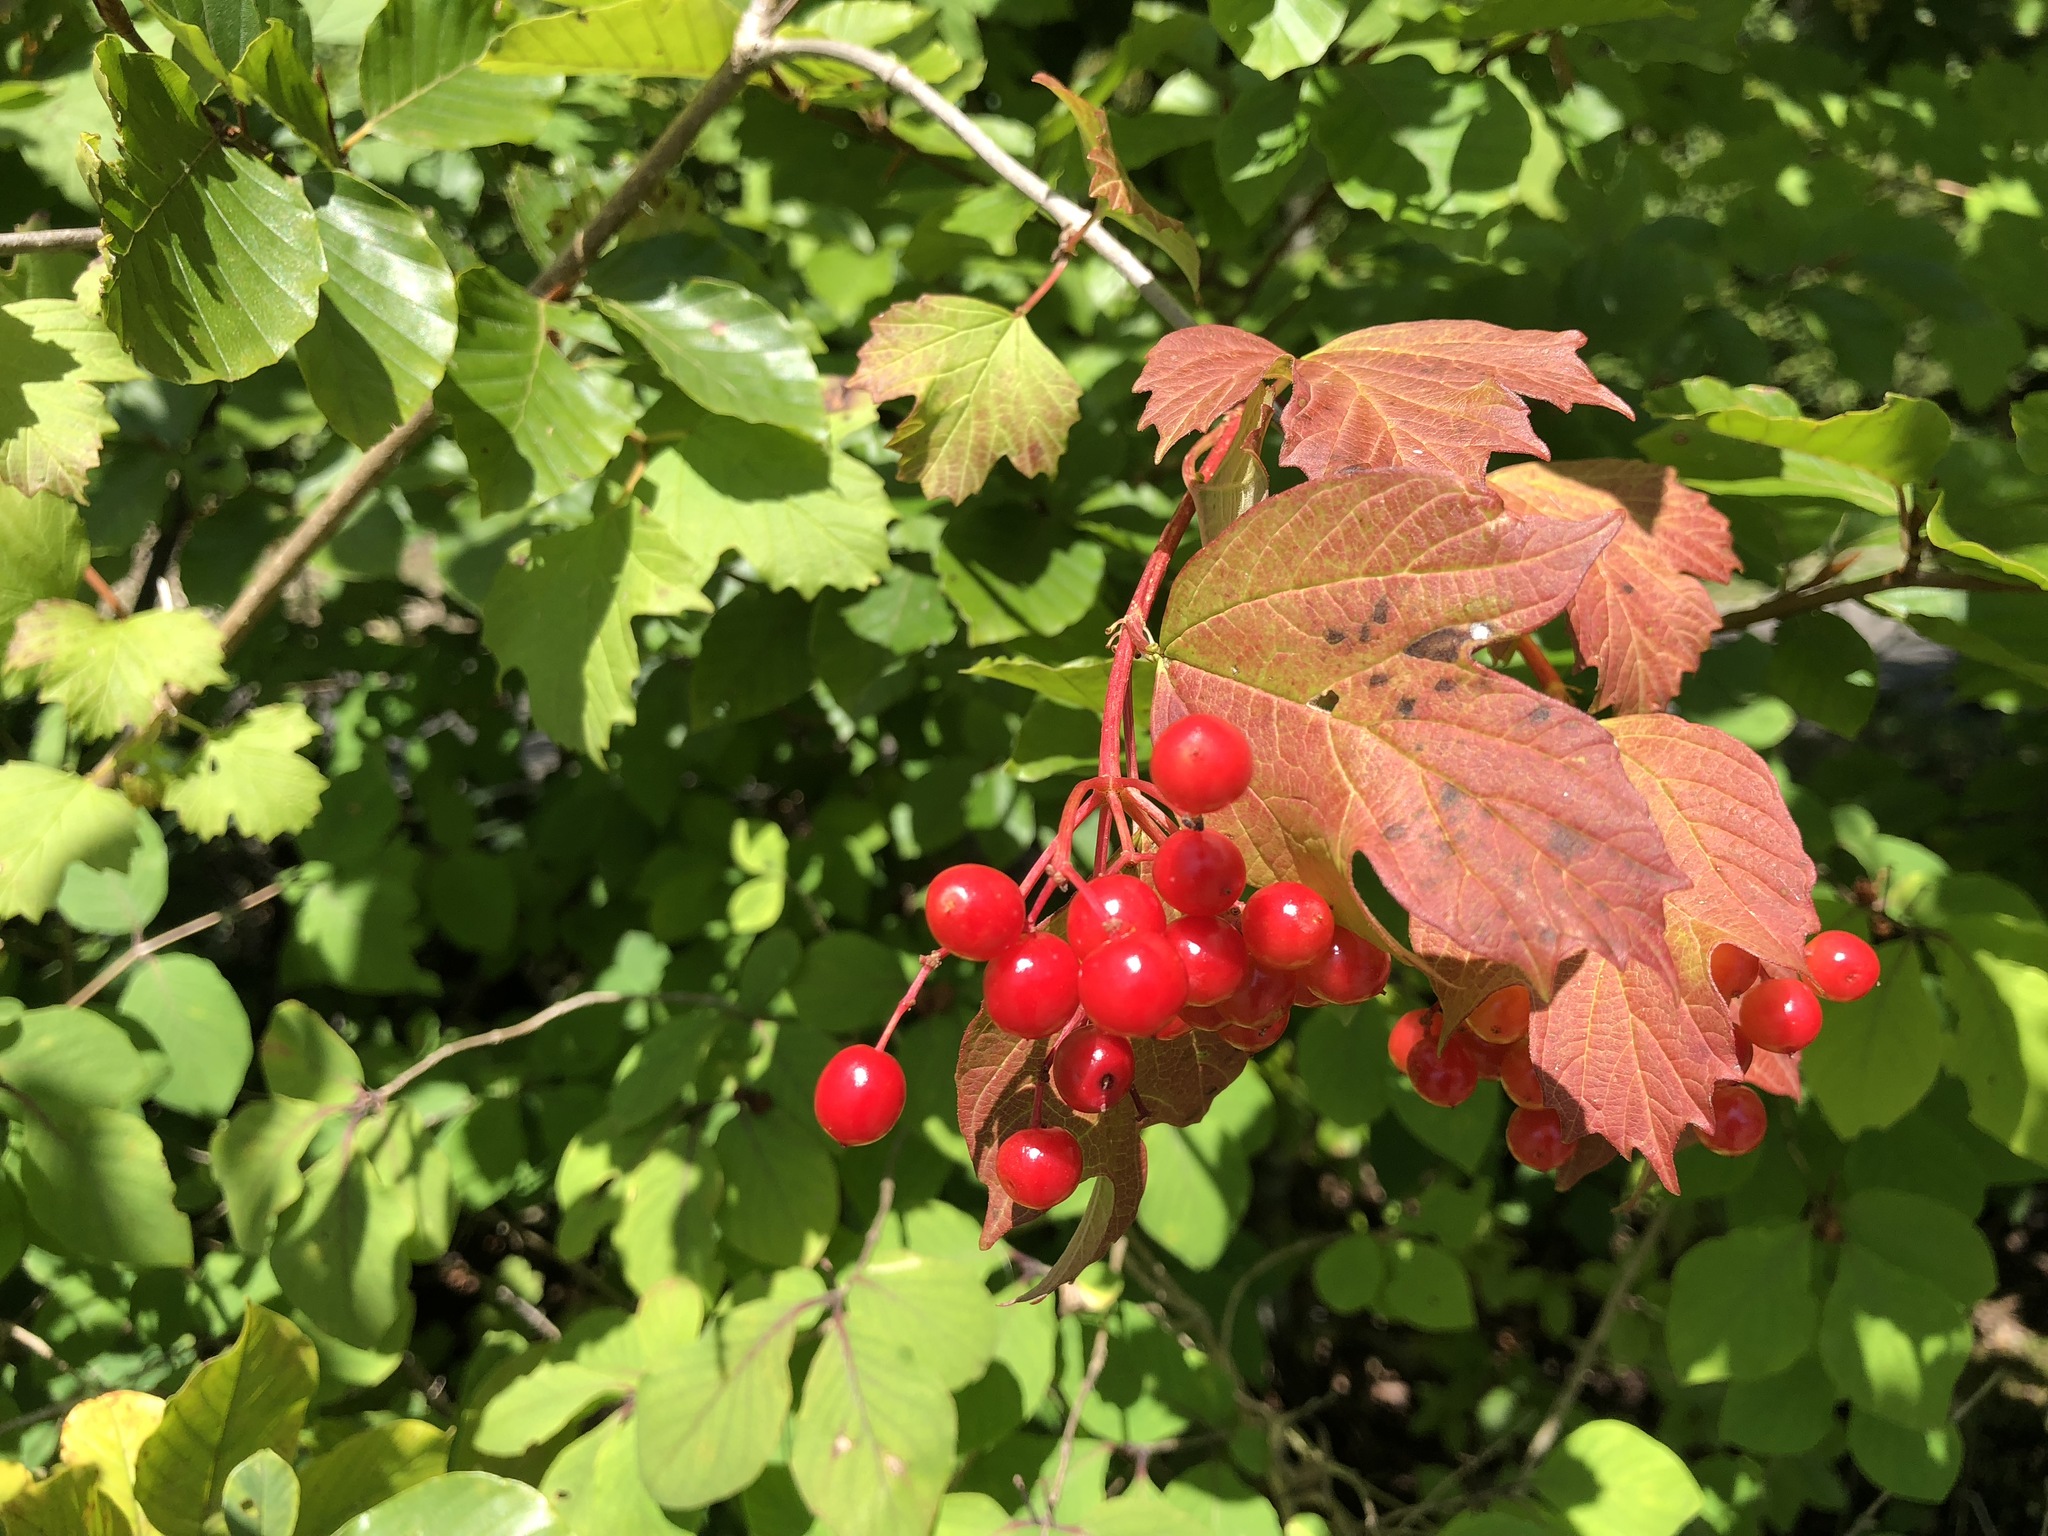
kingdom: Plantae
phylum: Tracheophyta
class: Magnoliopsida
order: Dipsacales
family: Viburnaceae
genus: Viburnum
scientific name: Viburnum opulus
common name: Guelder-rose
